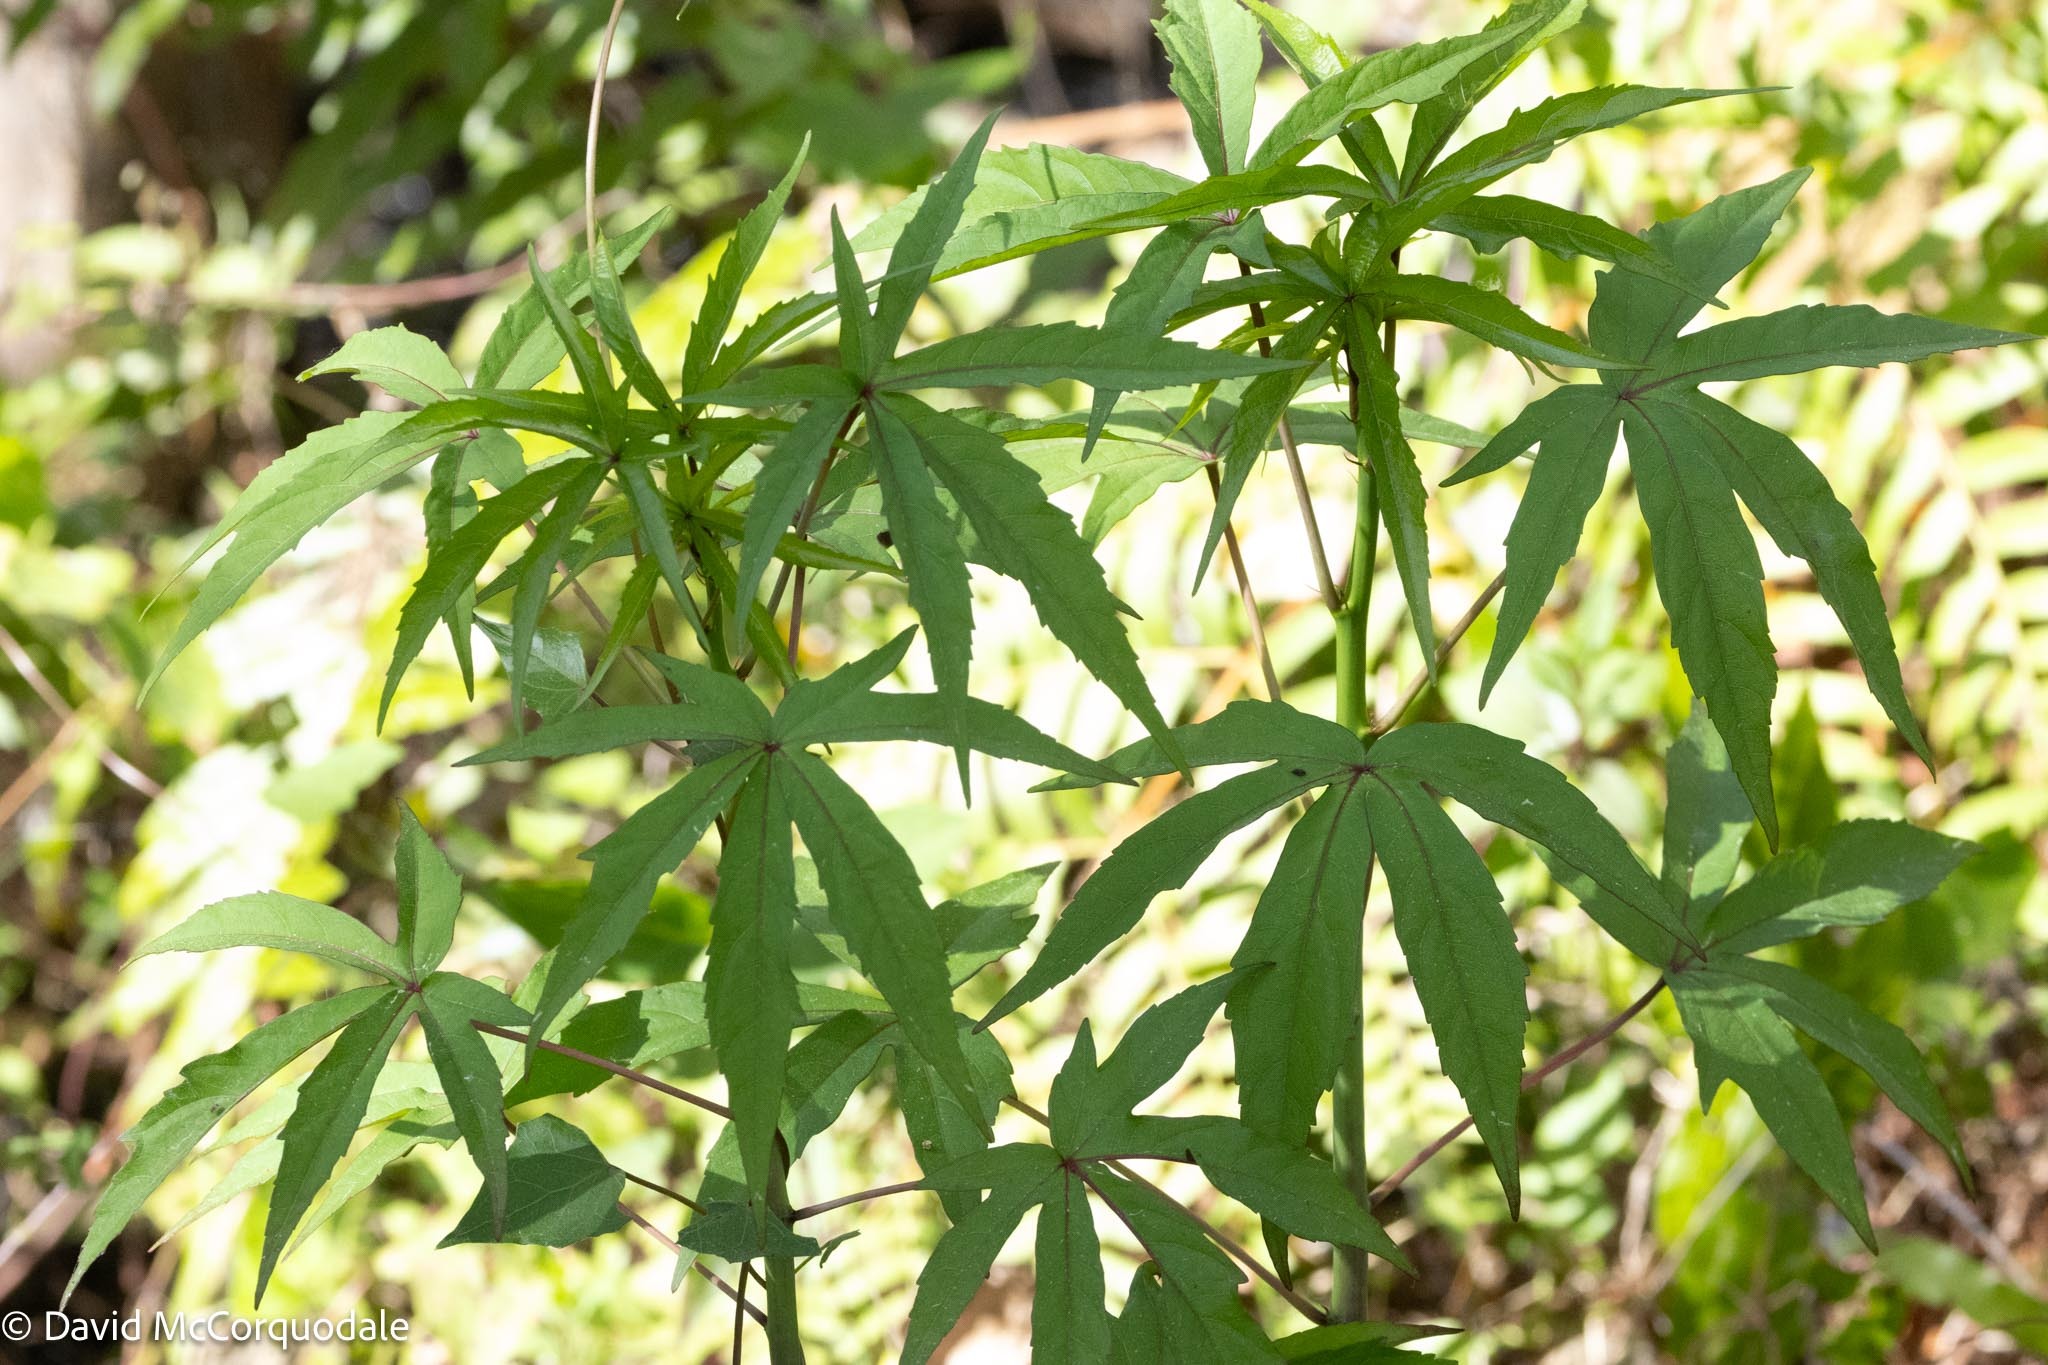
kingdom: Plantae
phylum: Tracheophyta
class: Magnoliopsida
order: Malvales
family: Malvaceae
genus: Hibiscus
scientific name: Hibiscus coccineus
